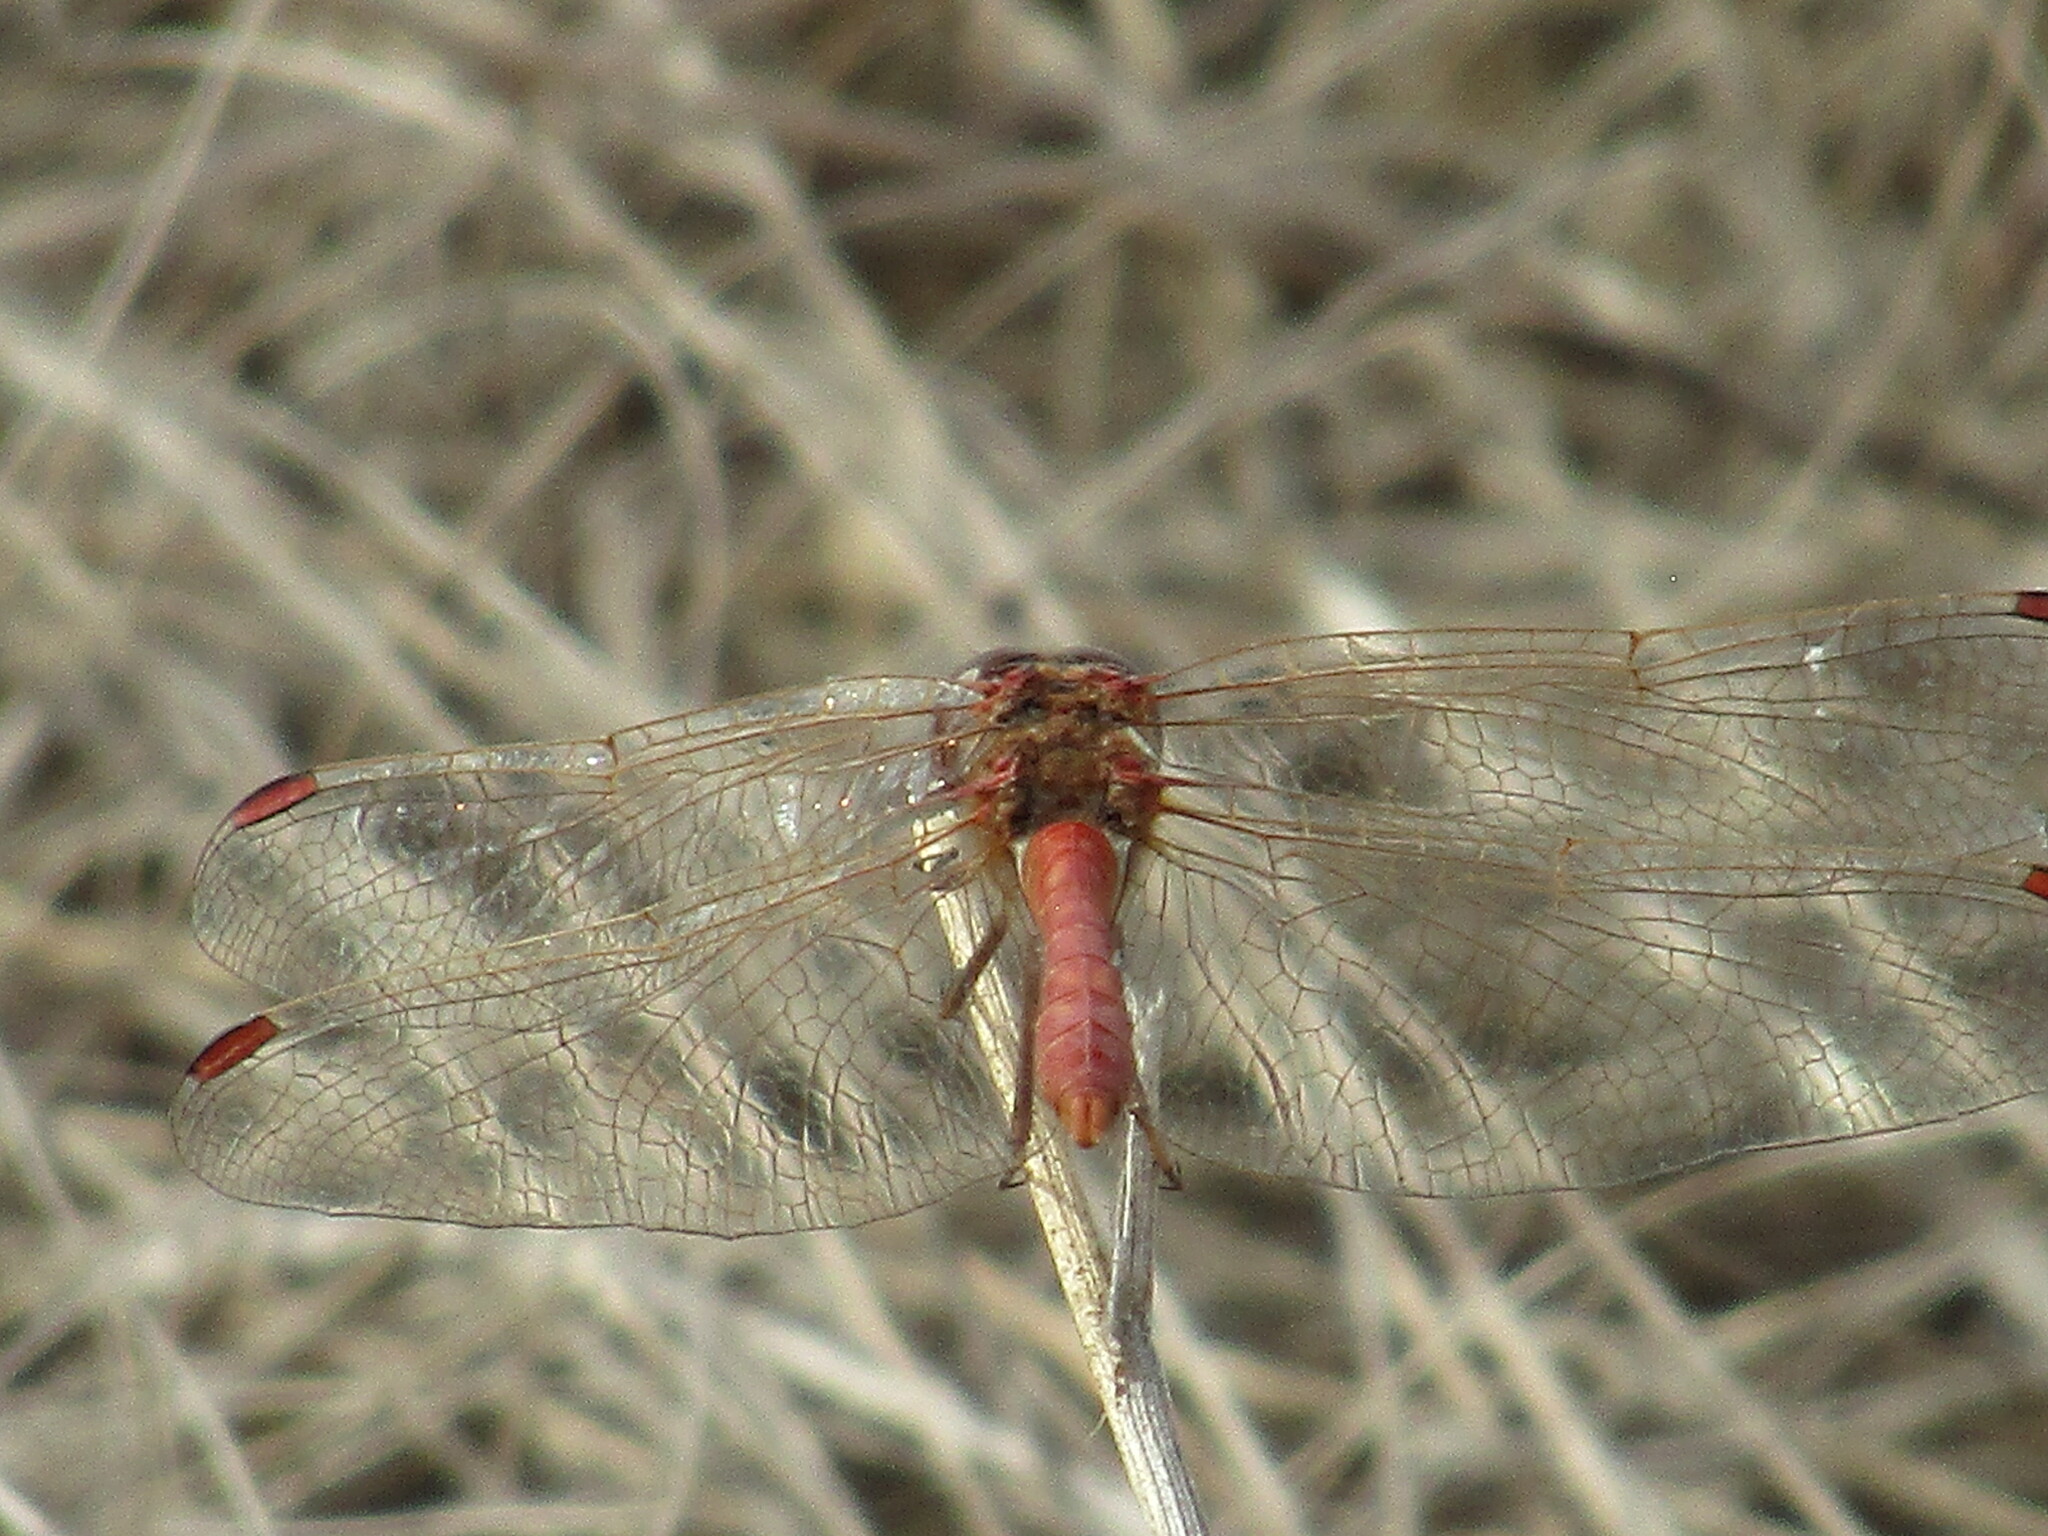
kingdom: Animalia
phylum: Arthropoda
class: Insecta
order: Odonata
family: Libellulidae
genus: Sympetrum
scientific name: Sympetrum meridionale
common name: Southern darter
